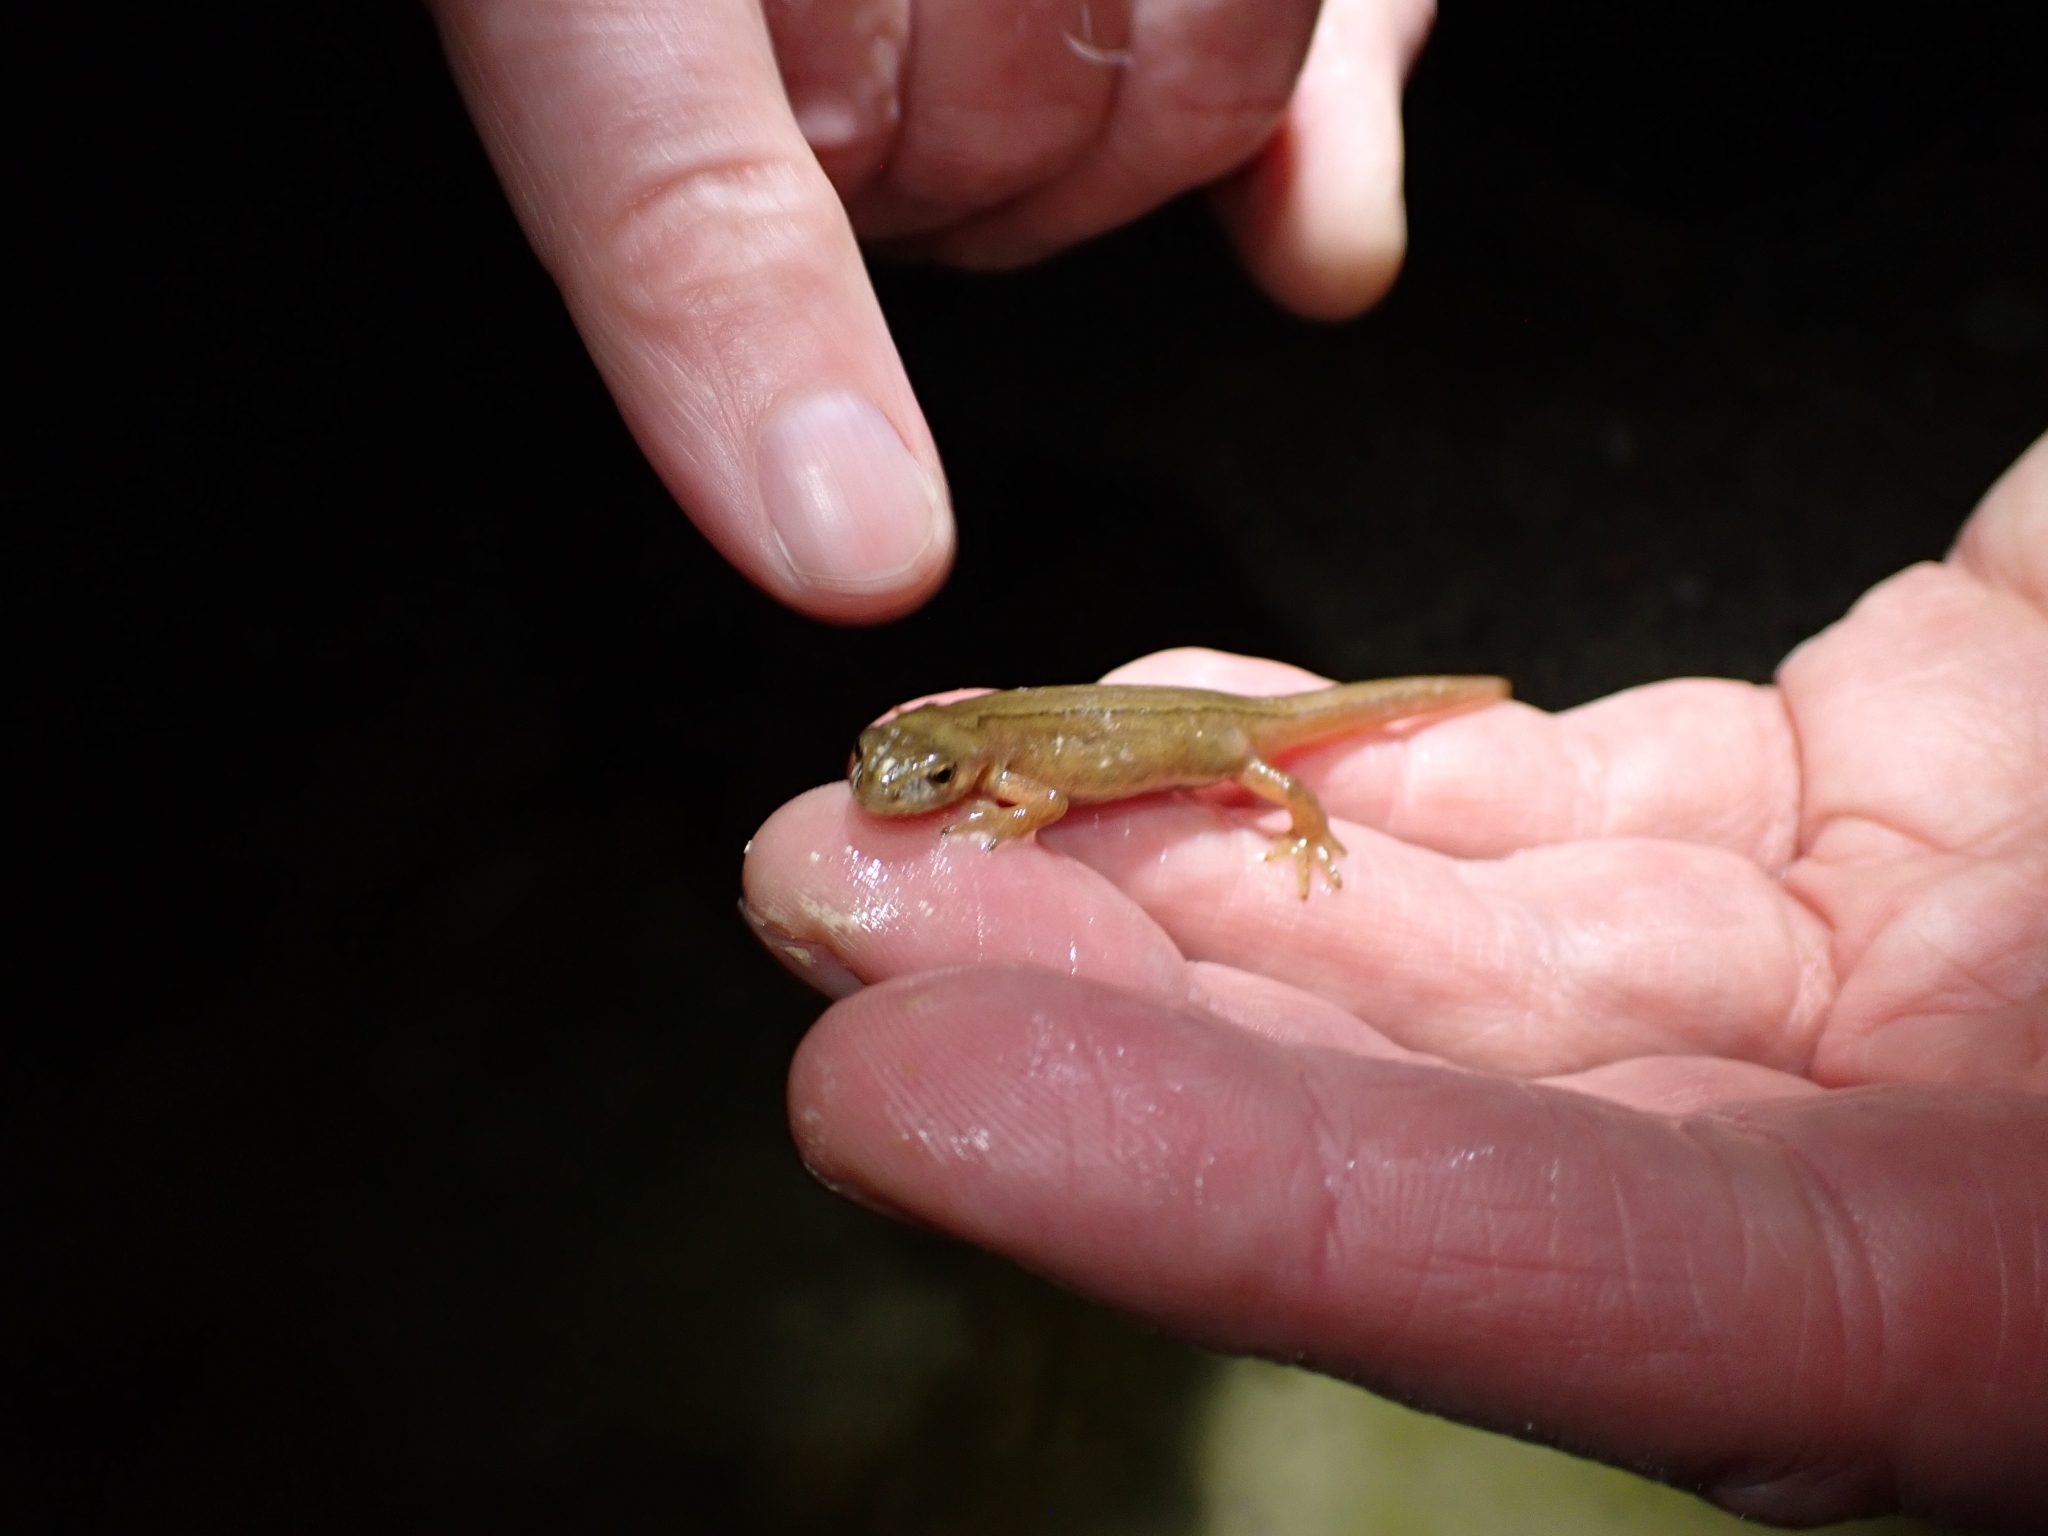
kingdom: Animalia
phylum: Chordata
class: Amphibia
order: Caudata
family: Salamandridae
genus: Lissotriton
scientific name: Lissotriton vulgaris
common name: Smooth newt
